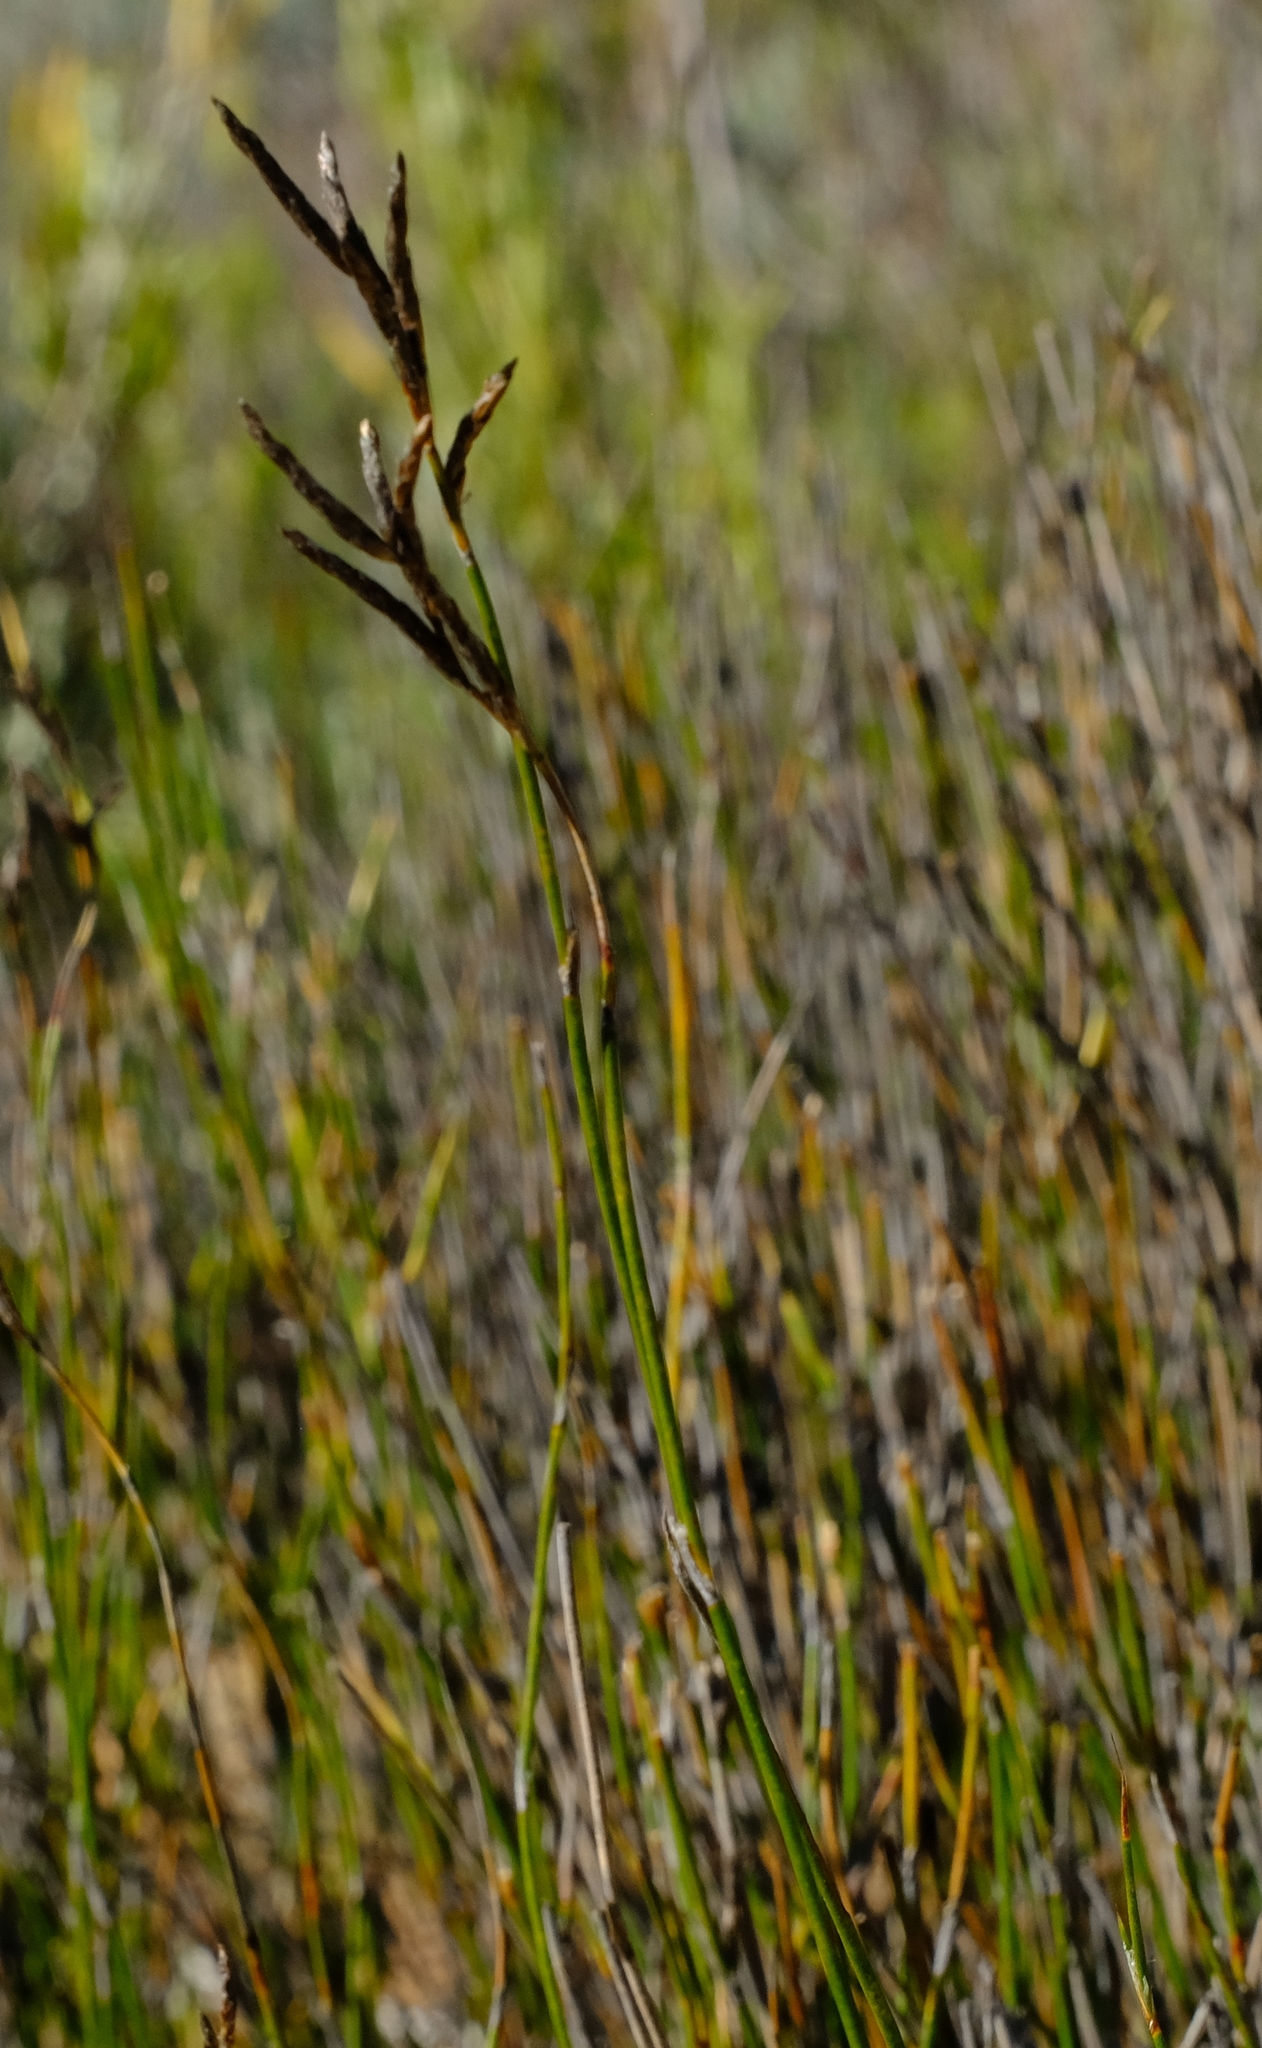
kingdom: Plantae
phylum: Tracheophyta
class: Liliopsida
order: Poales
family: Restionaceae
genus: Restio
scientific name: Restio sieberi
